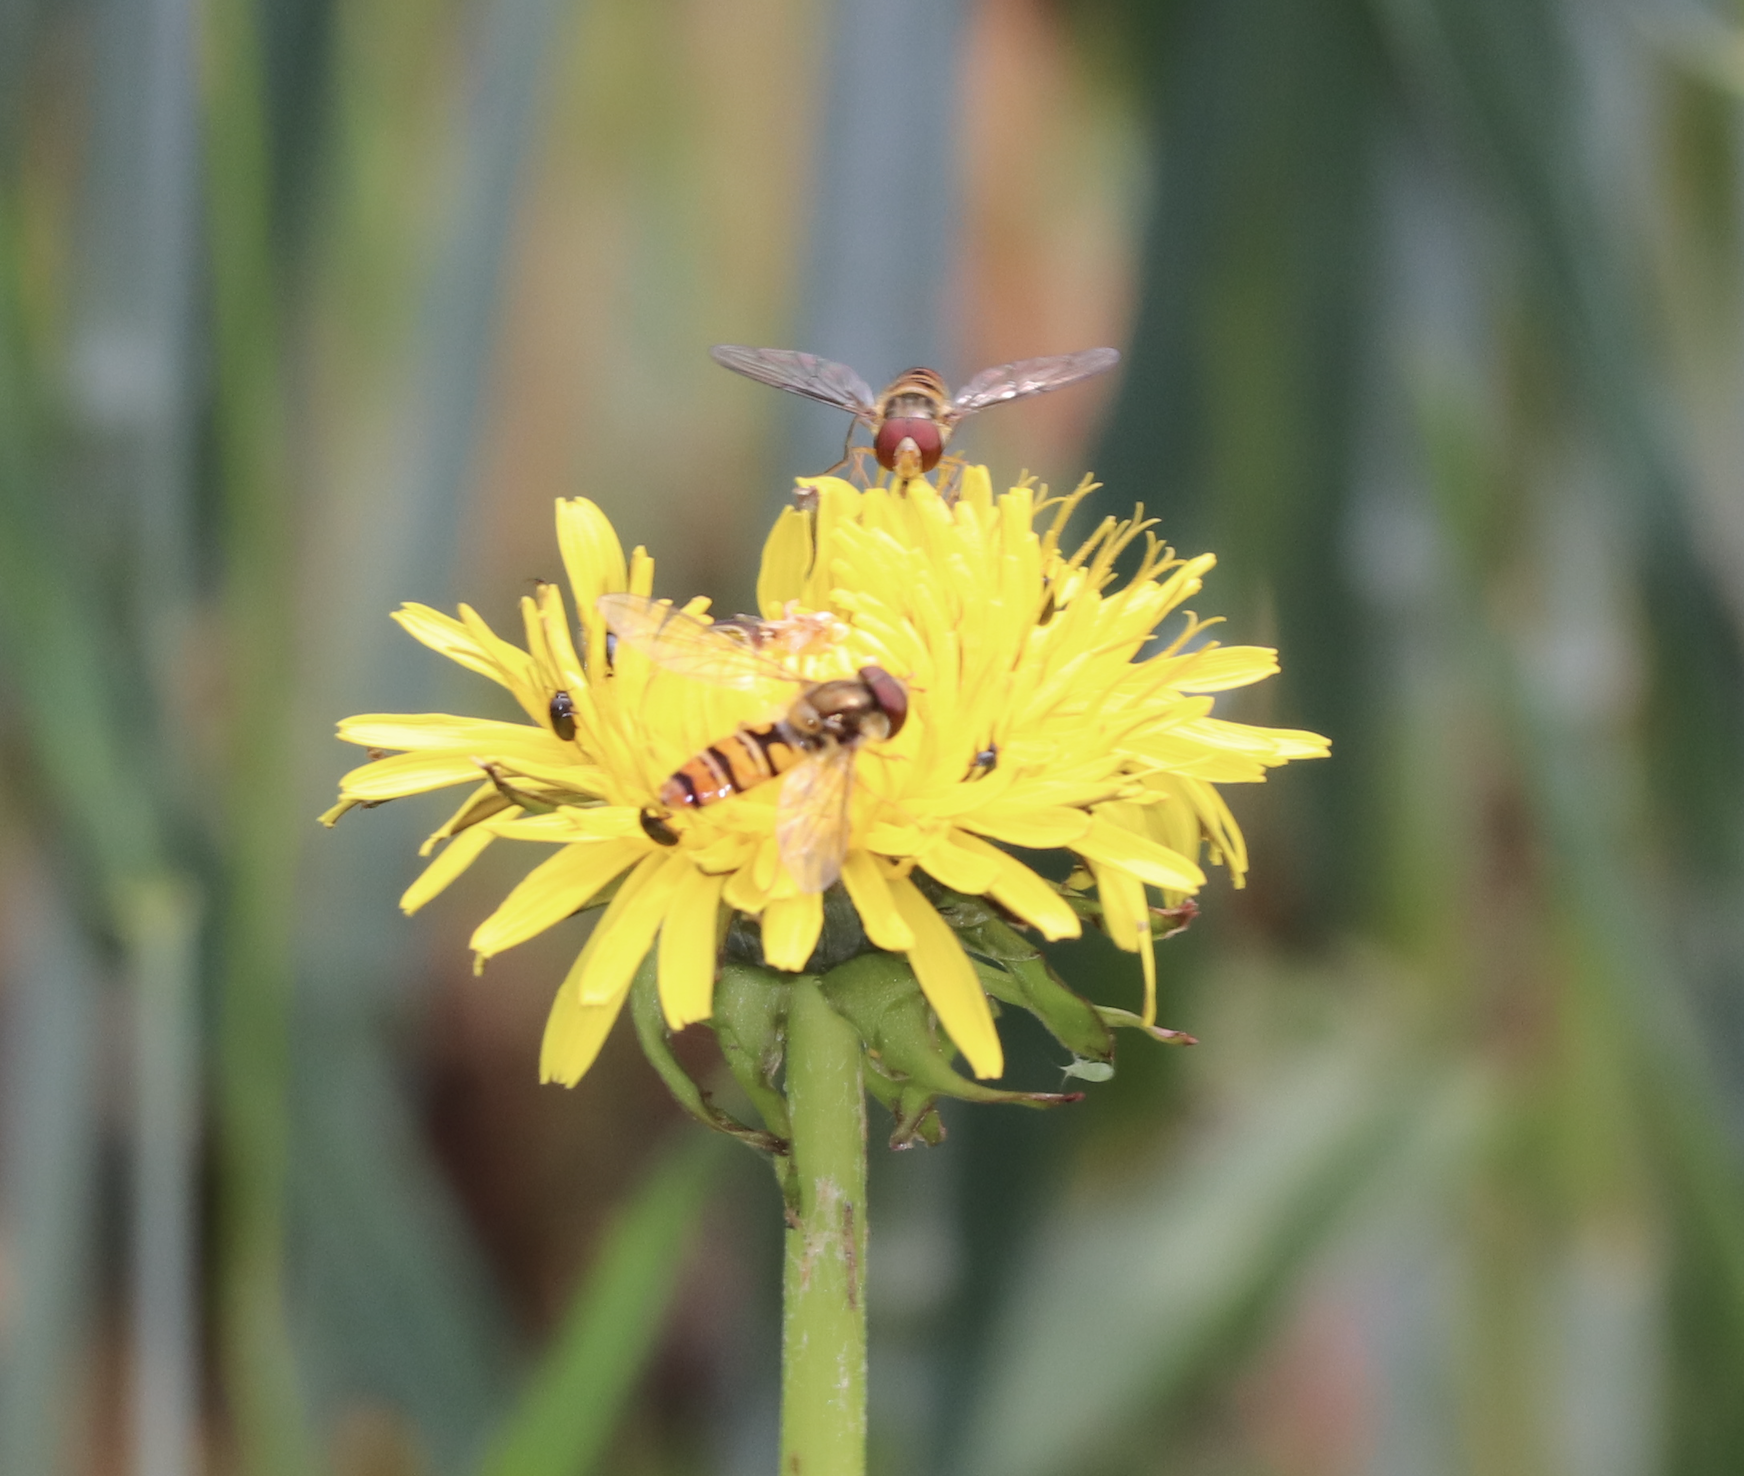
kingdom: Animalia
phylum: Arthropoda
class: Insecta
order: Diptera
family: Syrphidae
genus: Episyrphus
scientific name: Episyrphus balteatus
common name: Marmalade hoverfly
